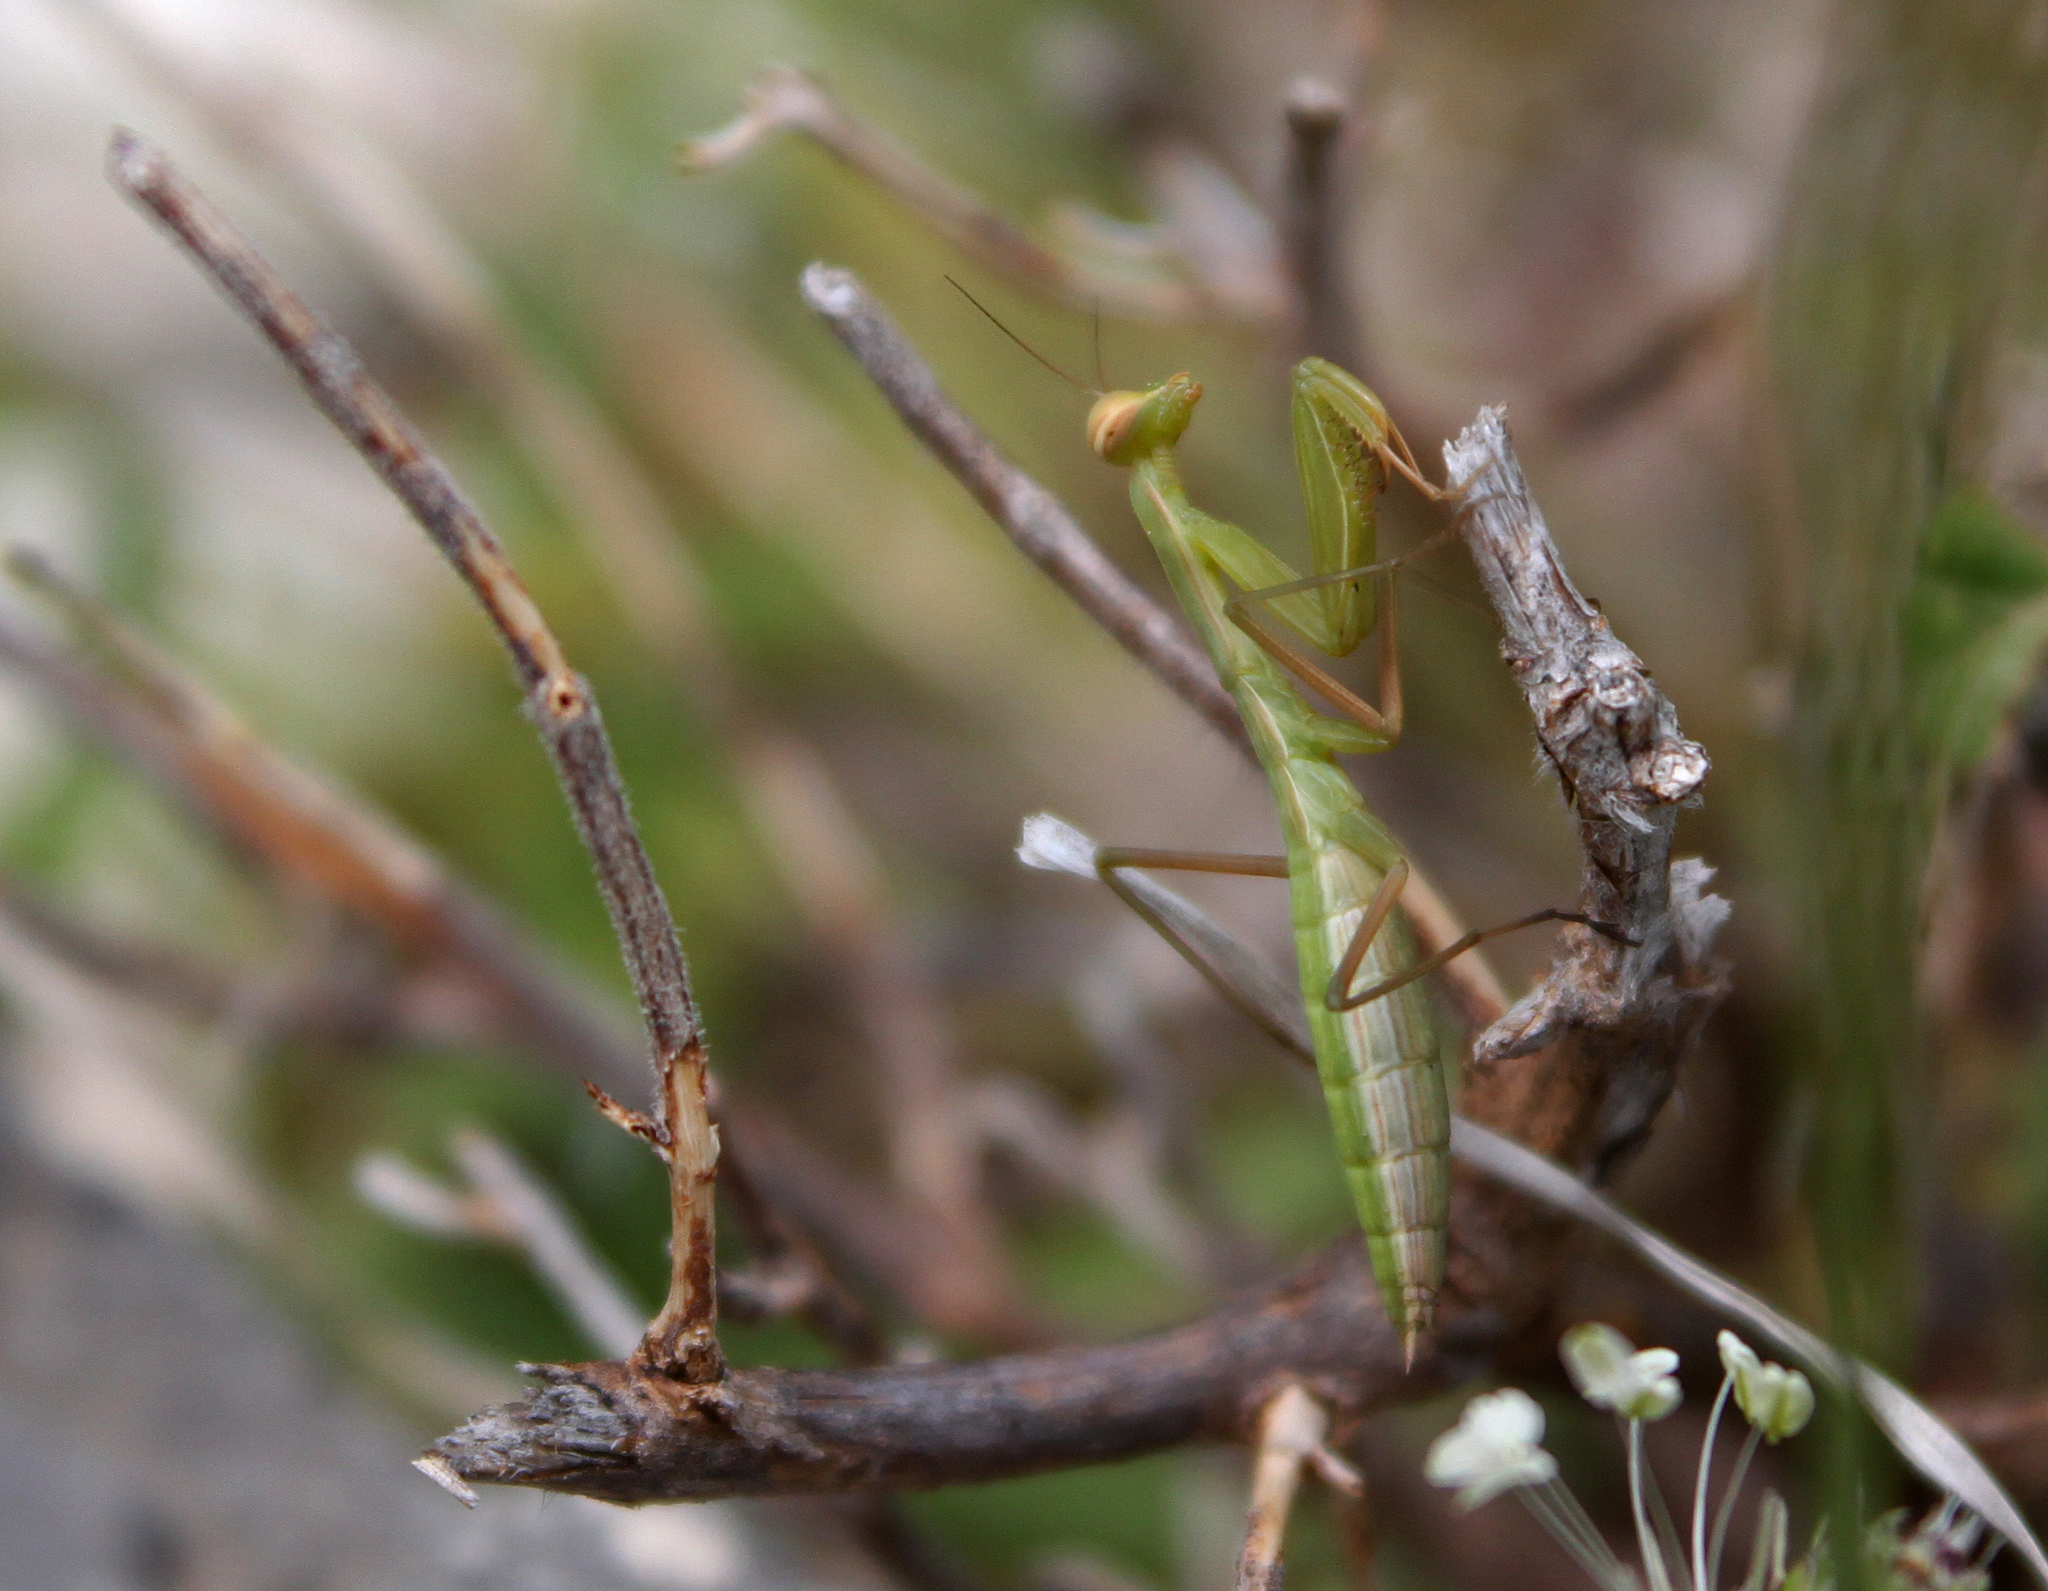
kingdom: Animalia
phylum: Arthropoda
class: Insecta
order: Mantodea
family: Mantidae
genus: Mantis
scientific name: Mantis religiosa
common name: Praying mantis
